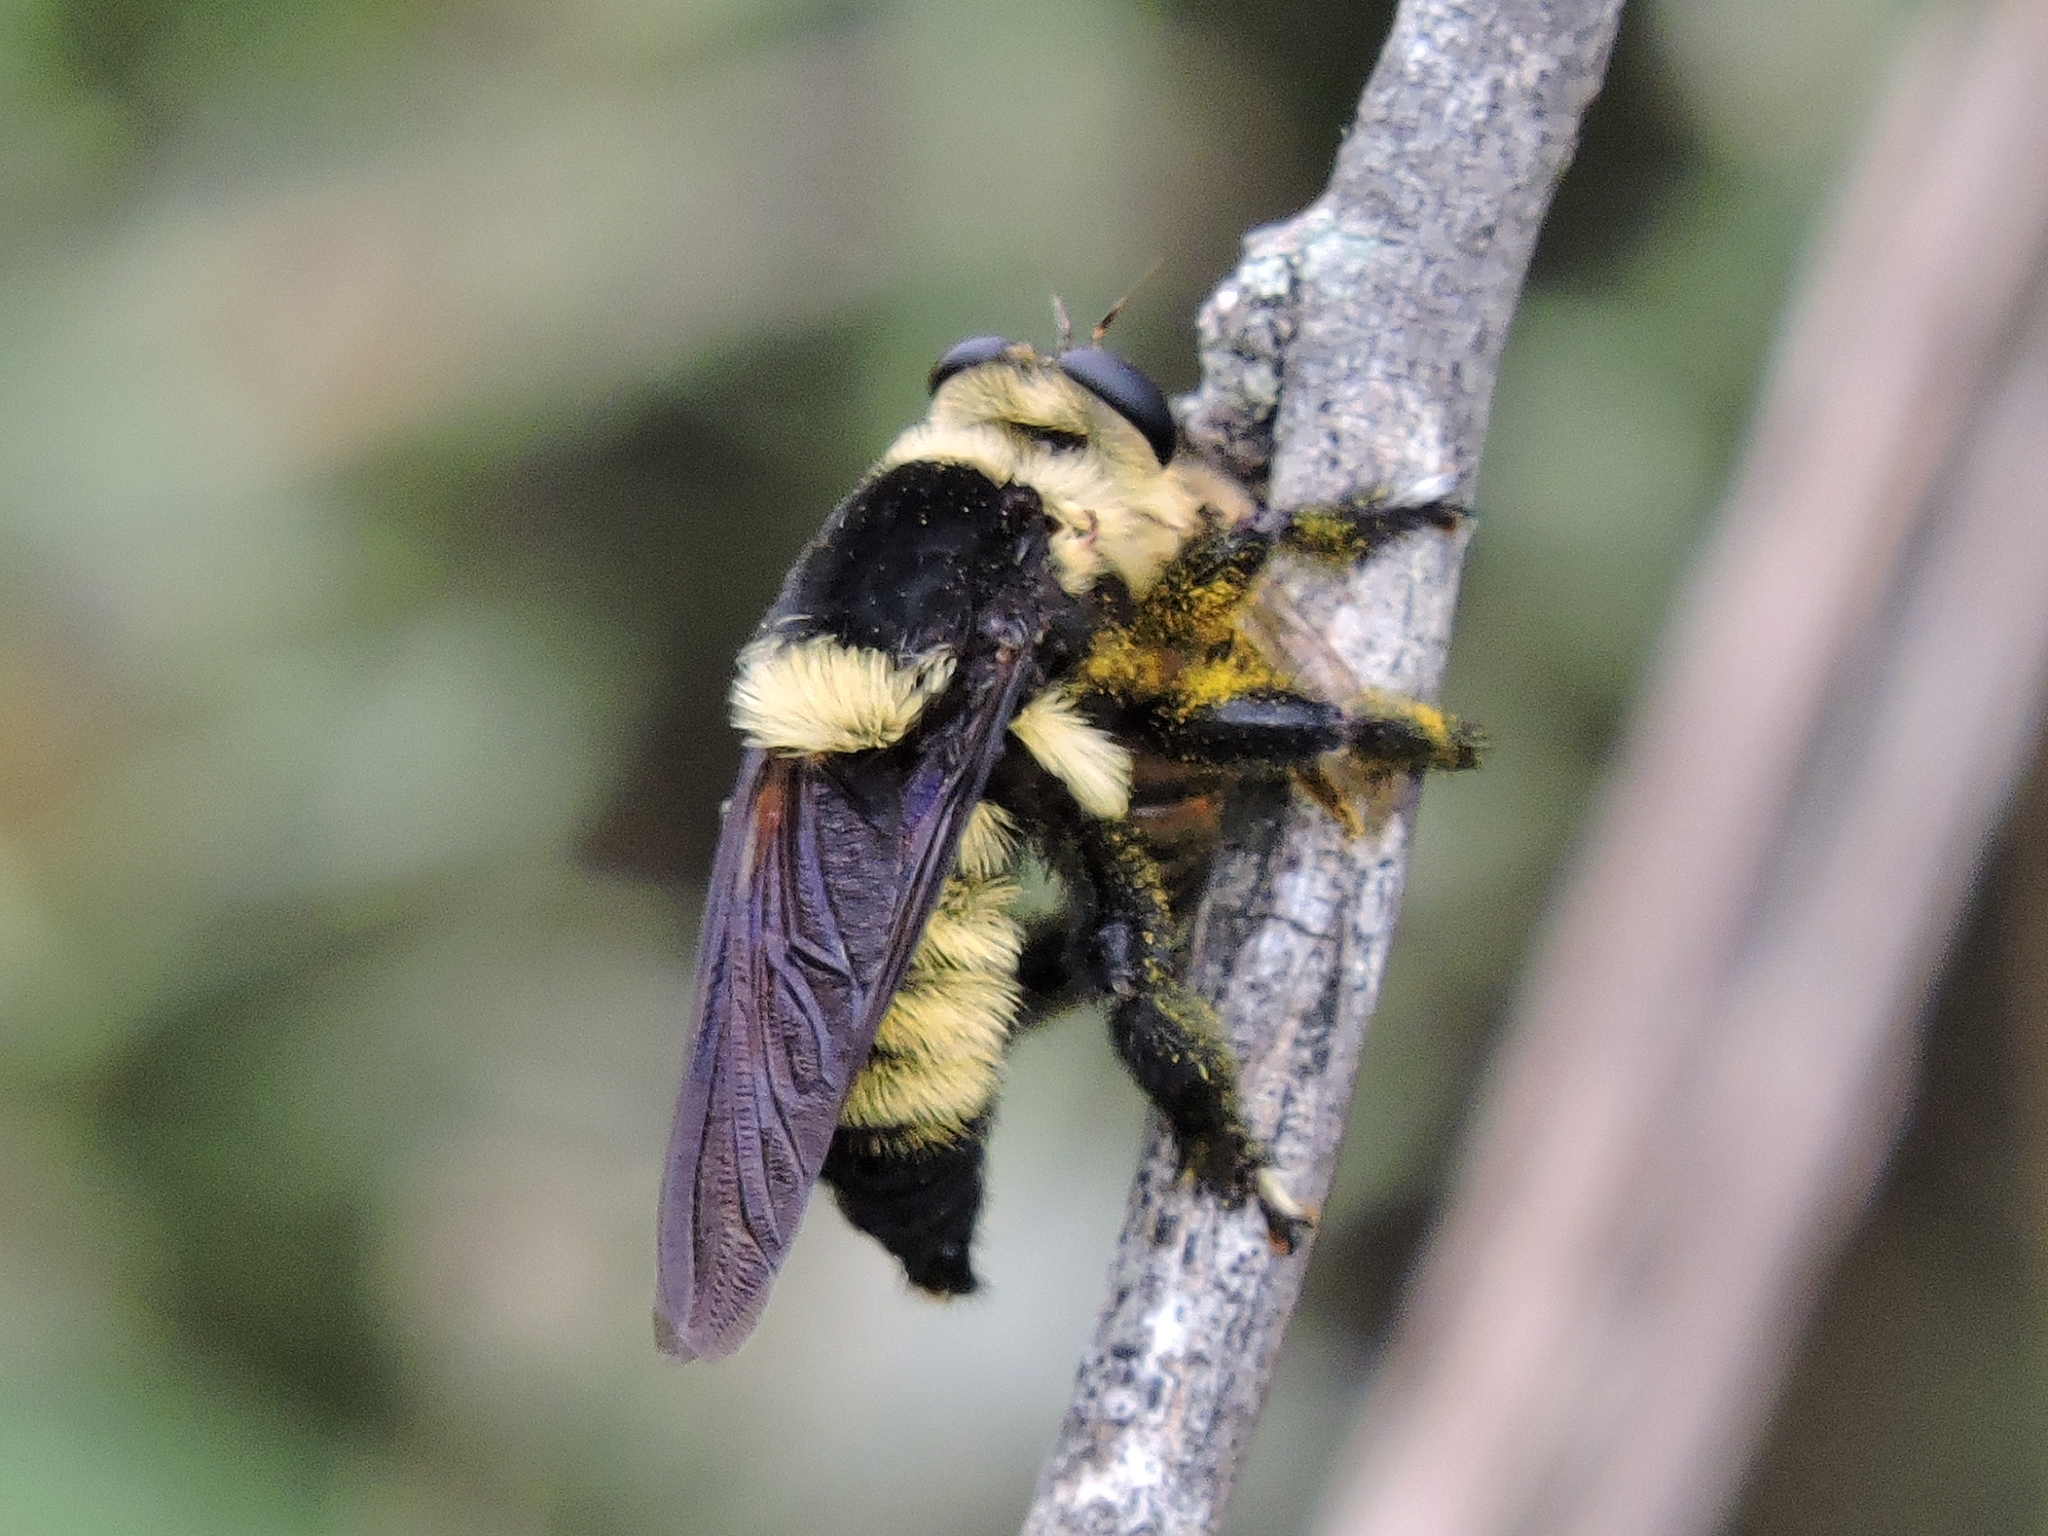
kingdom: Animalia
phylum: Arthropoda
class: Insecta
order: Diptera
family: Asilidae
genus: Mallophora
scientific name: Mallophora orcina
